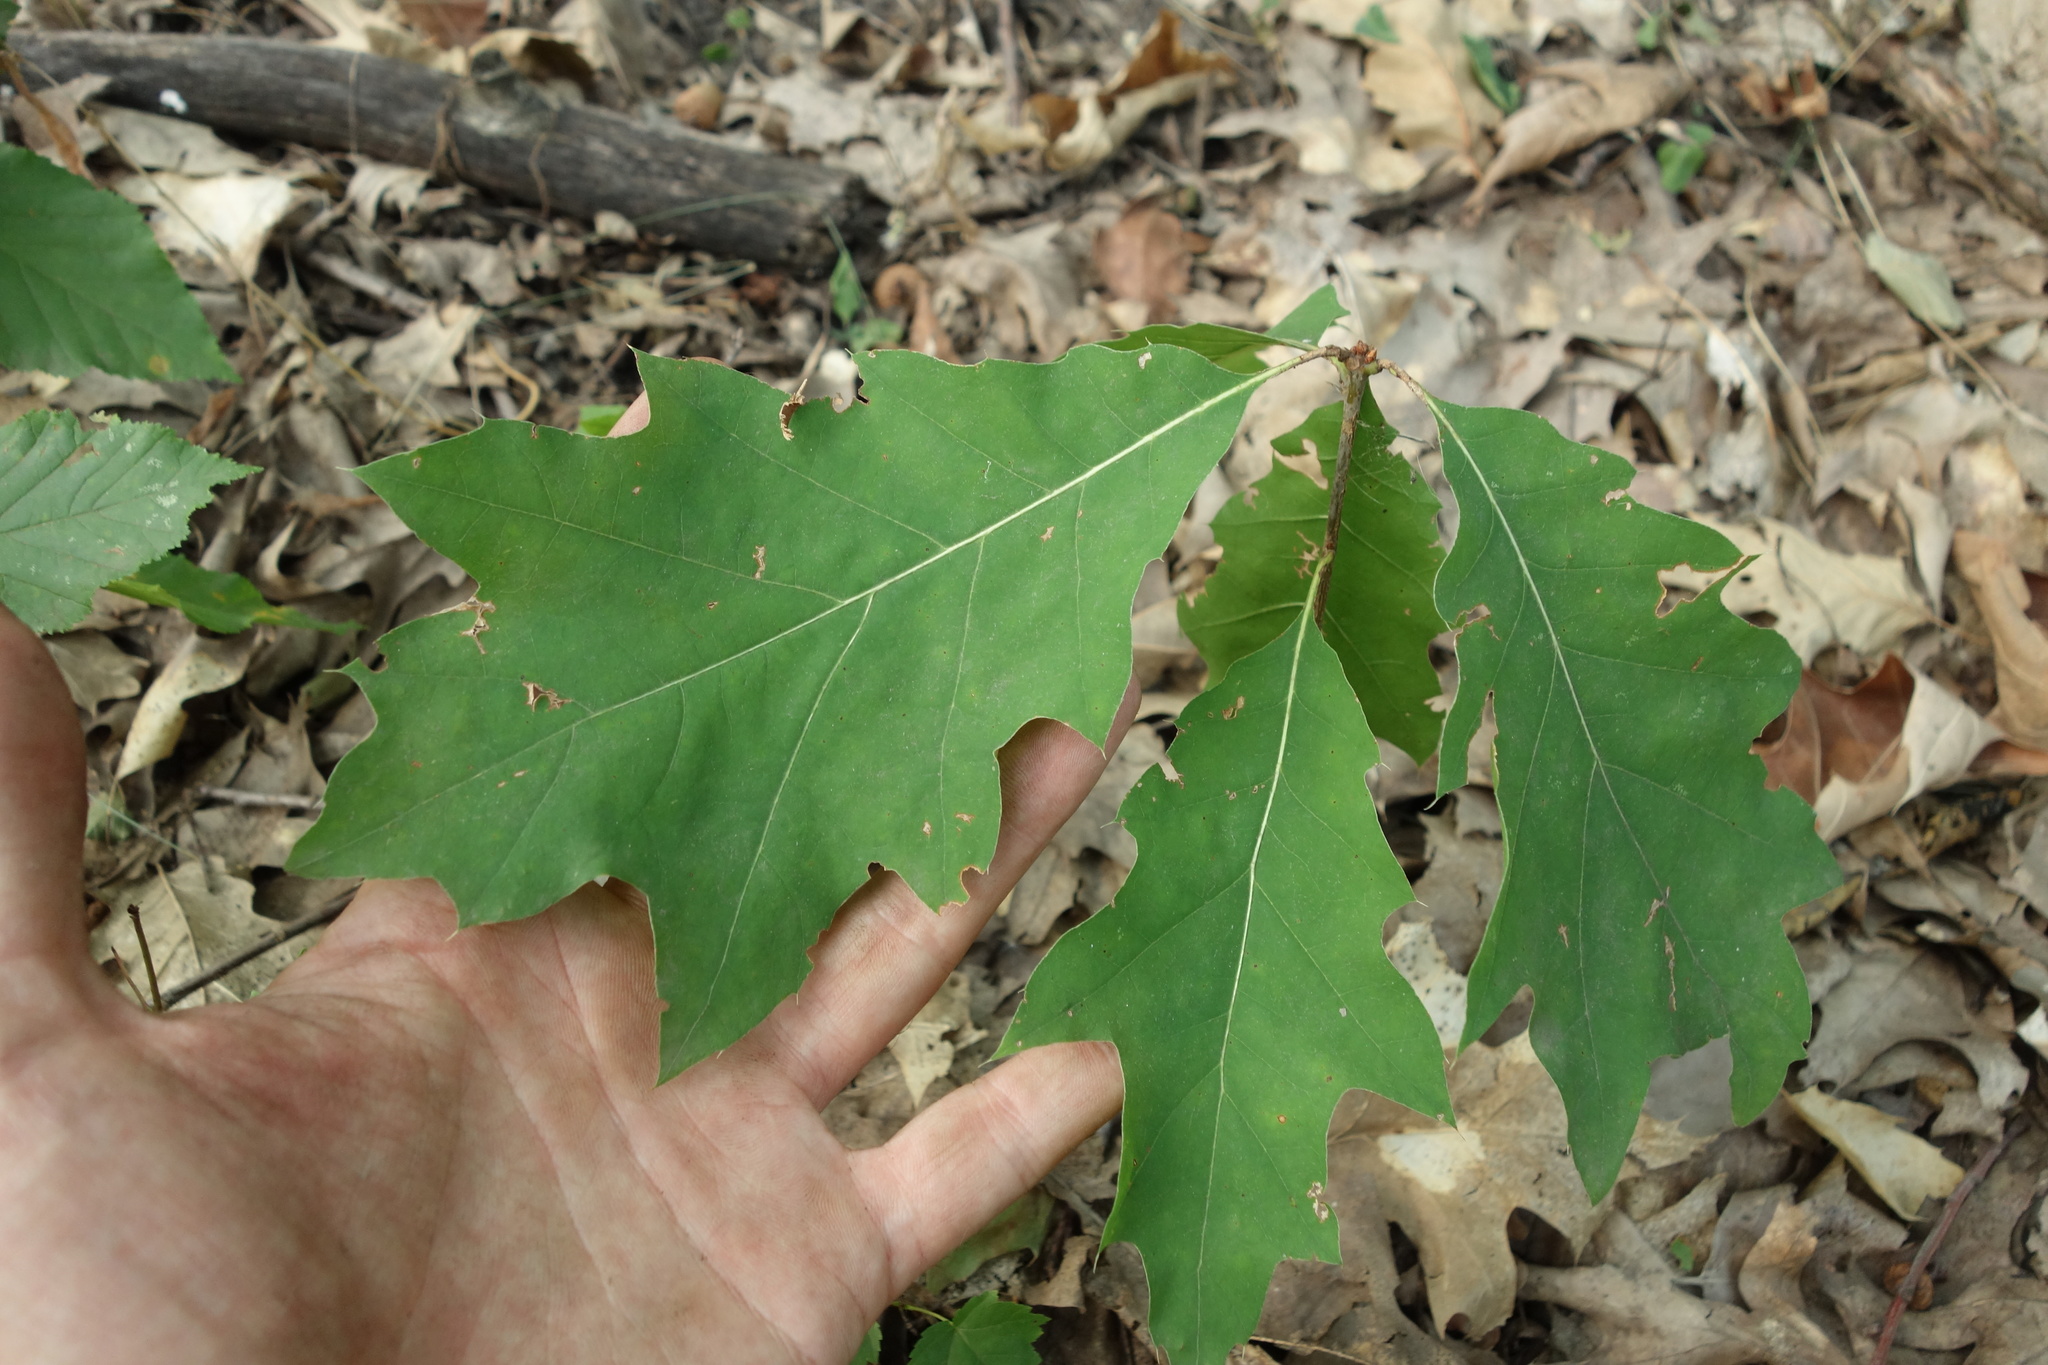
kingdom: Plantae
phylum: Tracheophyta
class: Magnoliopsida
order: Fagales
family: Fagaceae
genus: Quercus
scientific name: Quercus rubra
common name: Red oak
